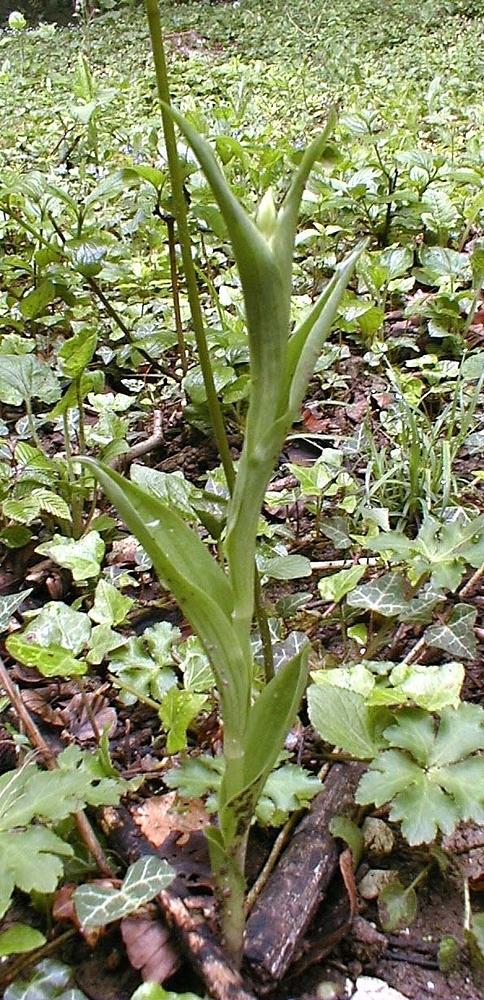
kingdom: Plantae
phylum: Tracheophyta
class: Liliopsida
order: Asparagales
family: Orchidaceae
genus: Cephalanthera
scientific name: Cephalanthera damasonium
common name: White helleborine
